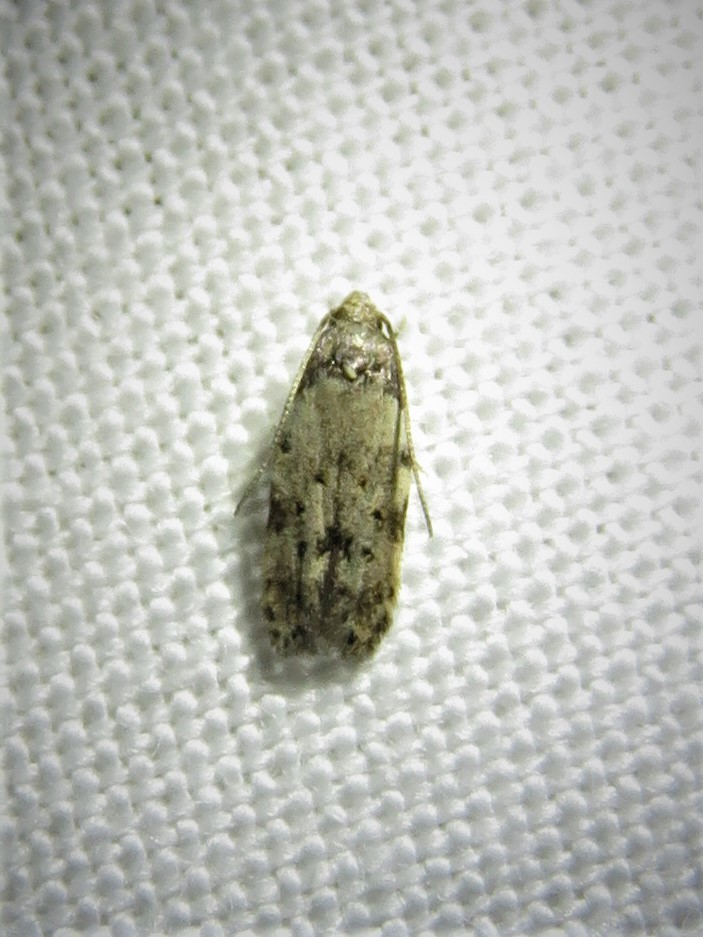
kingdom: Animalia
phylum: Arthropoda
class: Insecta
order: Lepidoptera
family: Autostichidae
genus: Taygete
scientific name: Taygete attributella
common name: Triangle-marked twirler moth
